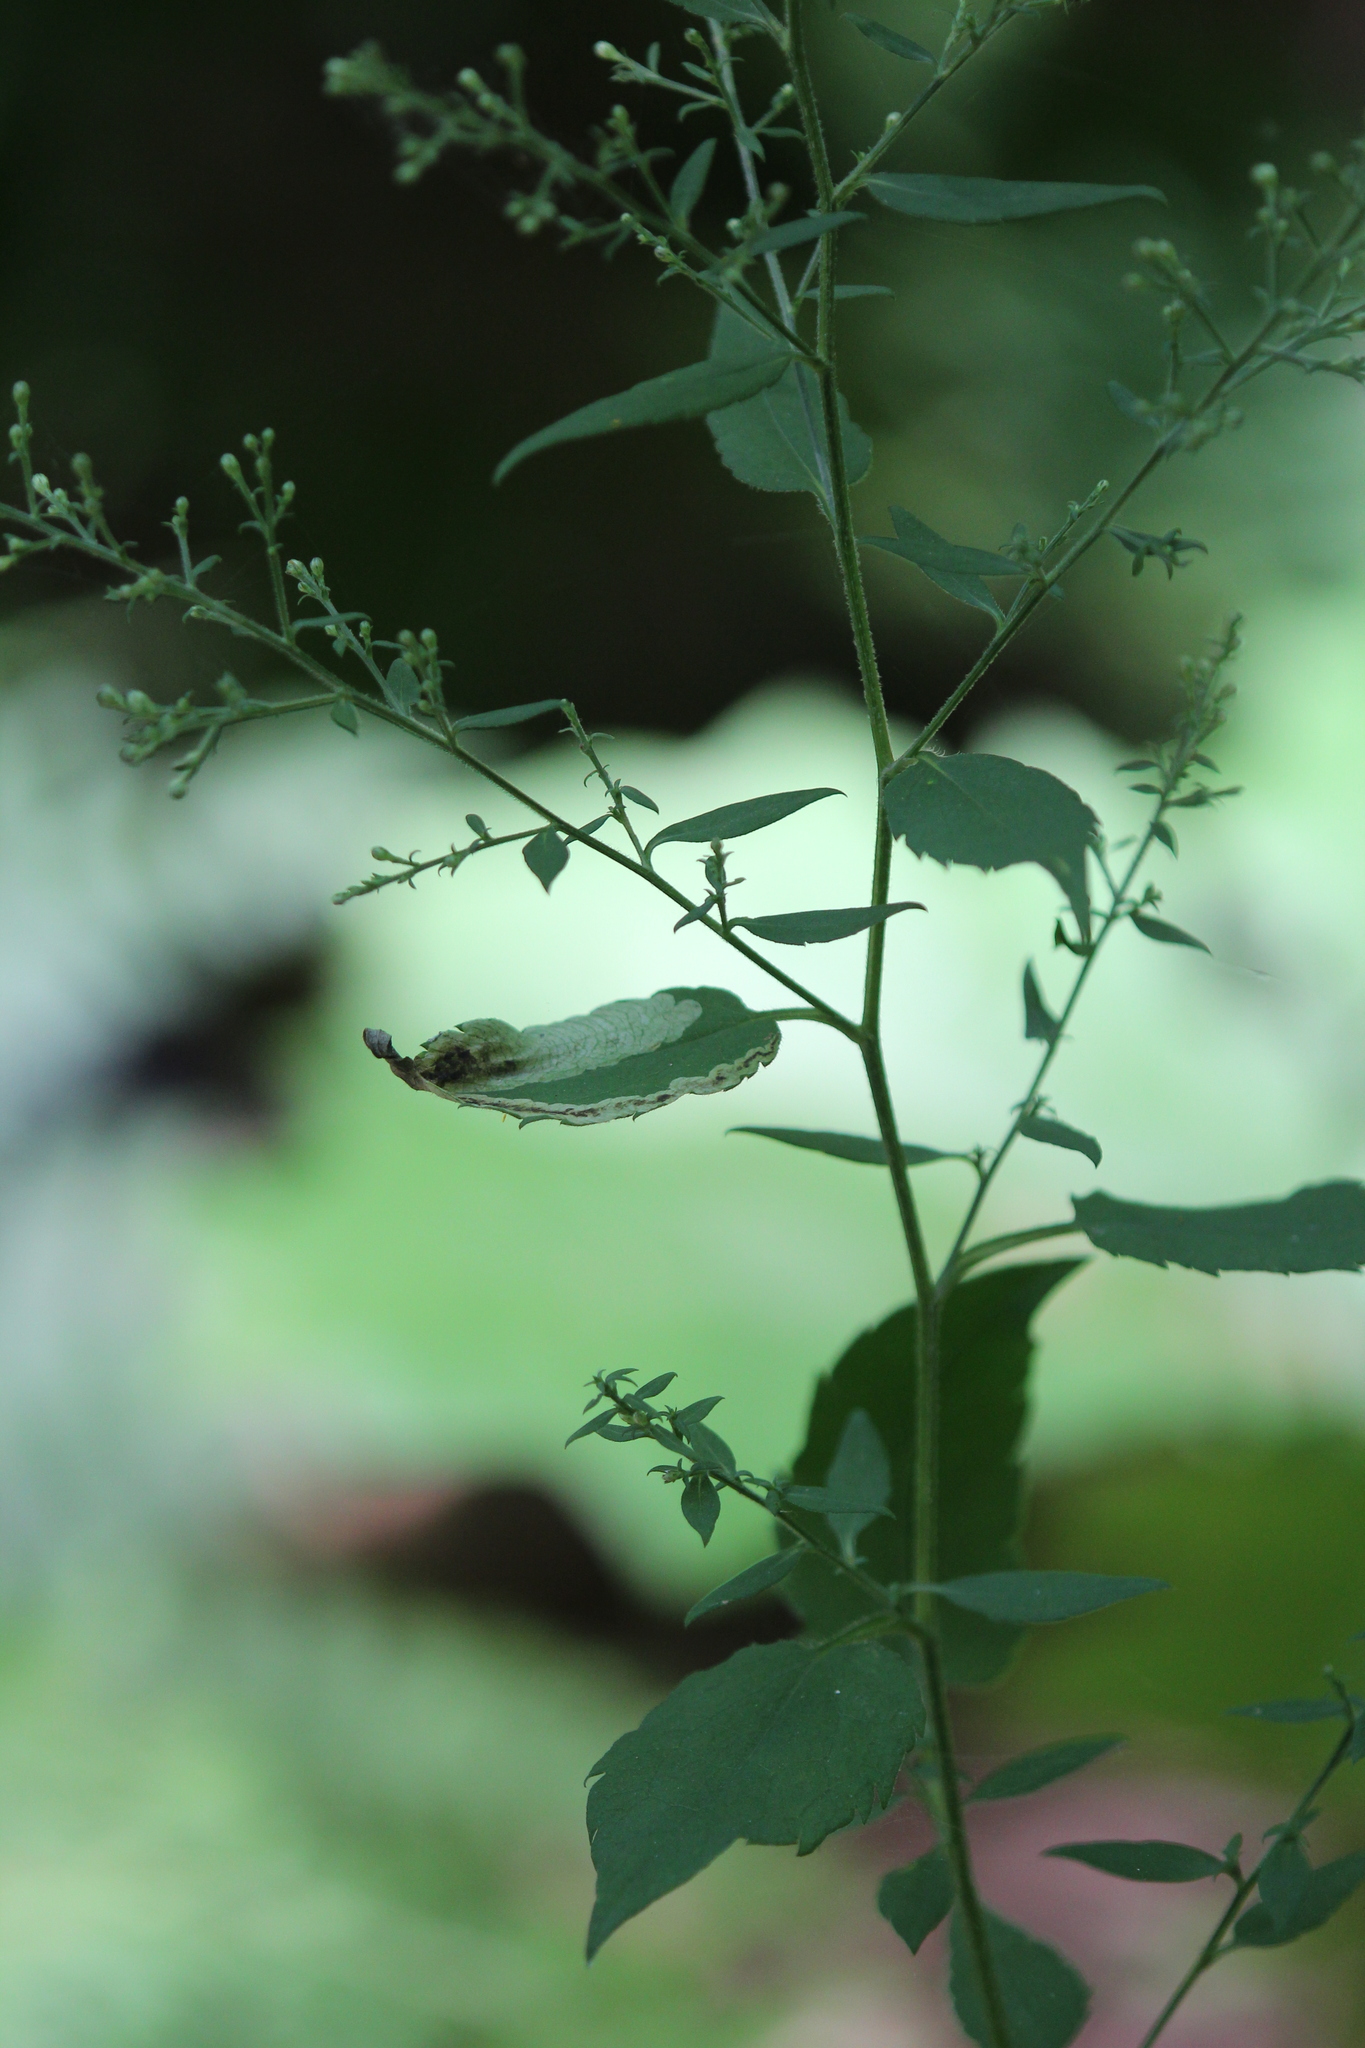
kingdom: Animalia
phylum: Arthropoda
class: Insecta
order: Diptera
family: Agromyzidae
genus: Nemorimyza
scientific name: Nemorimyza posticata
